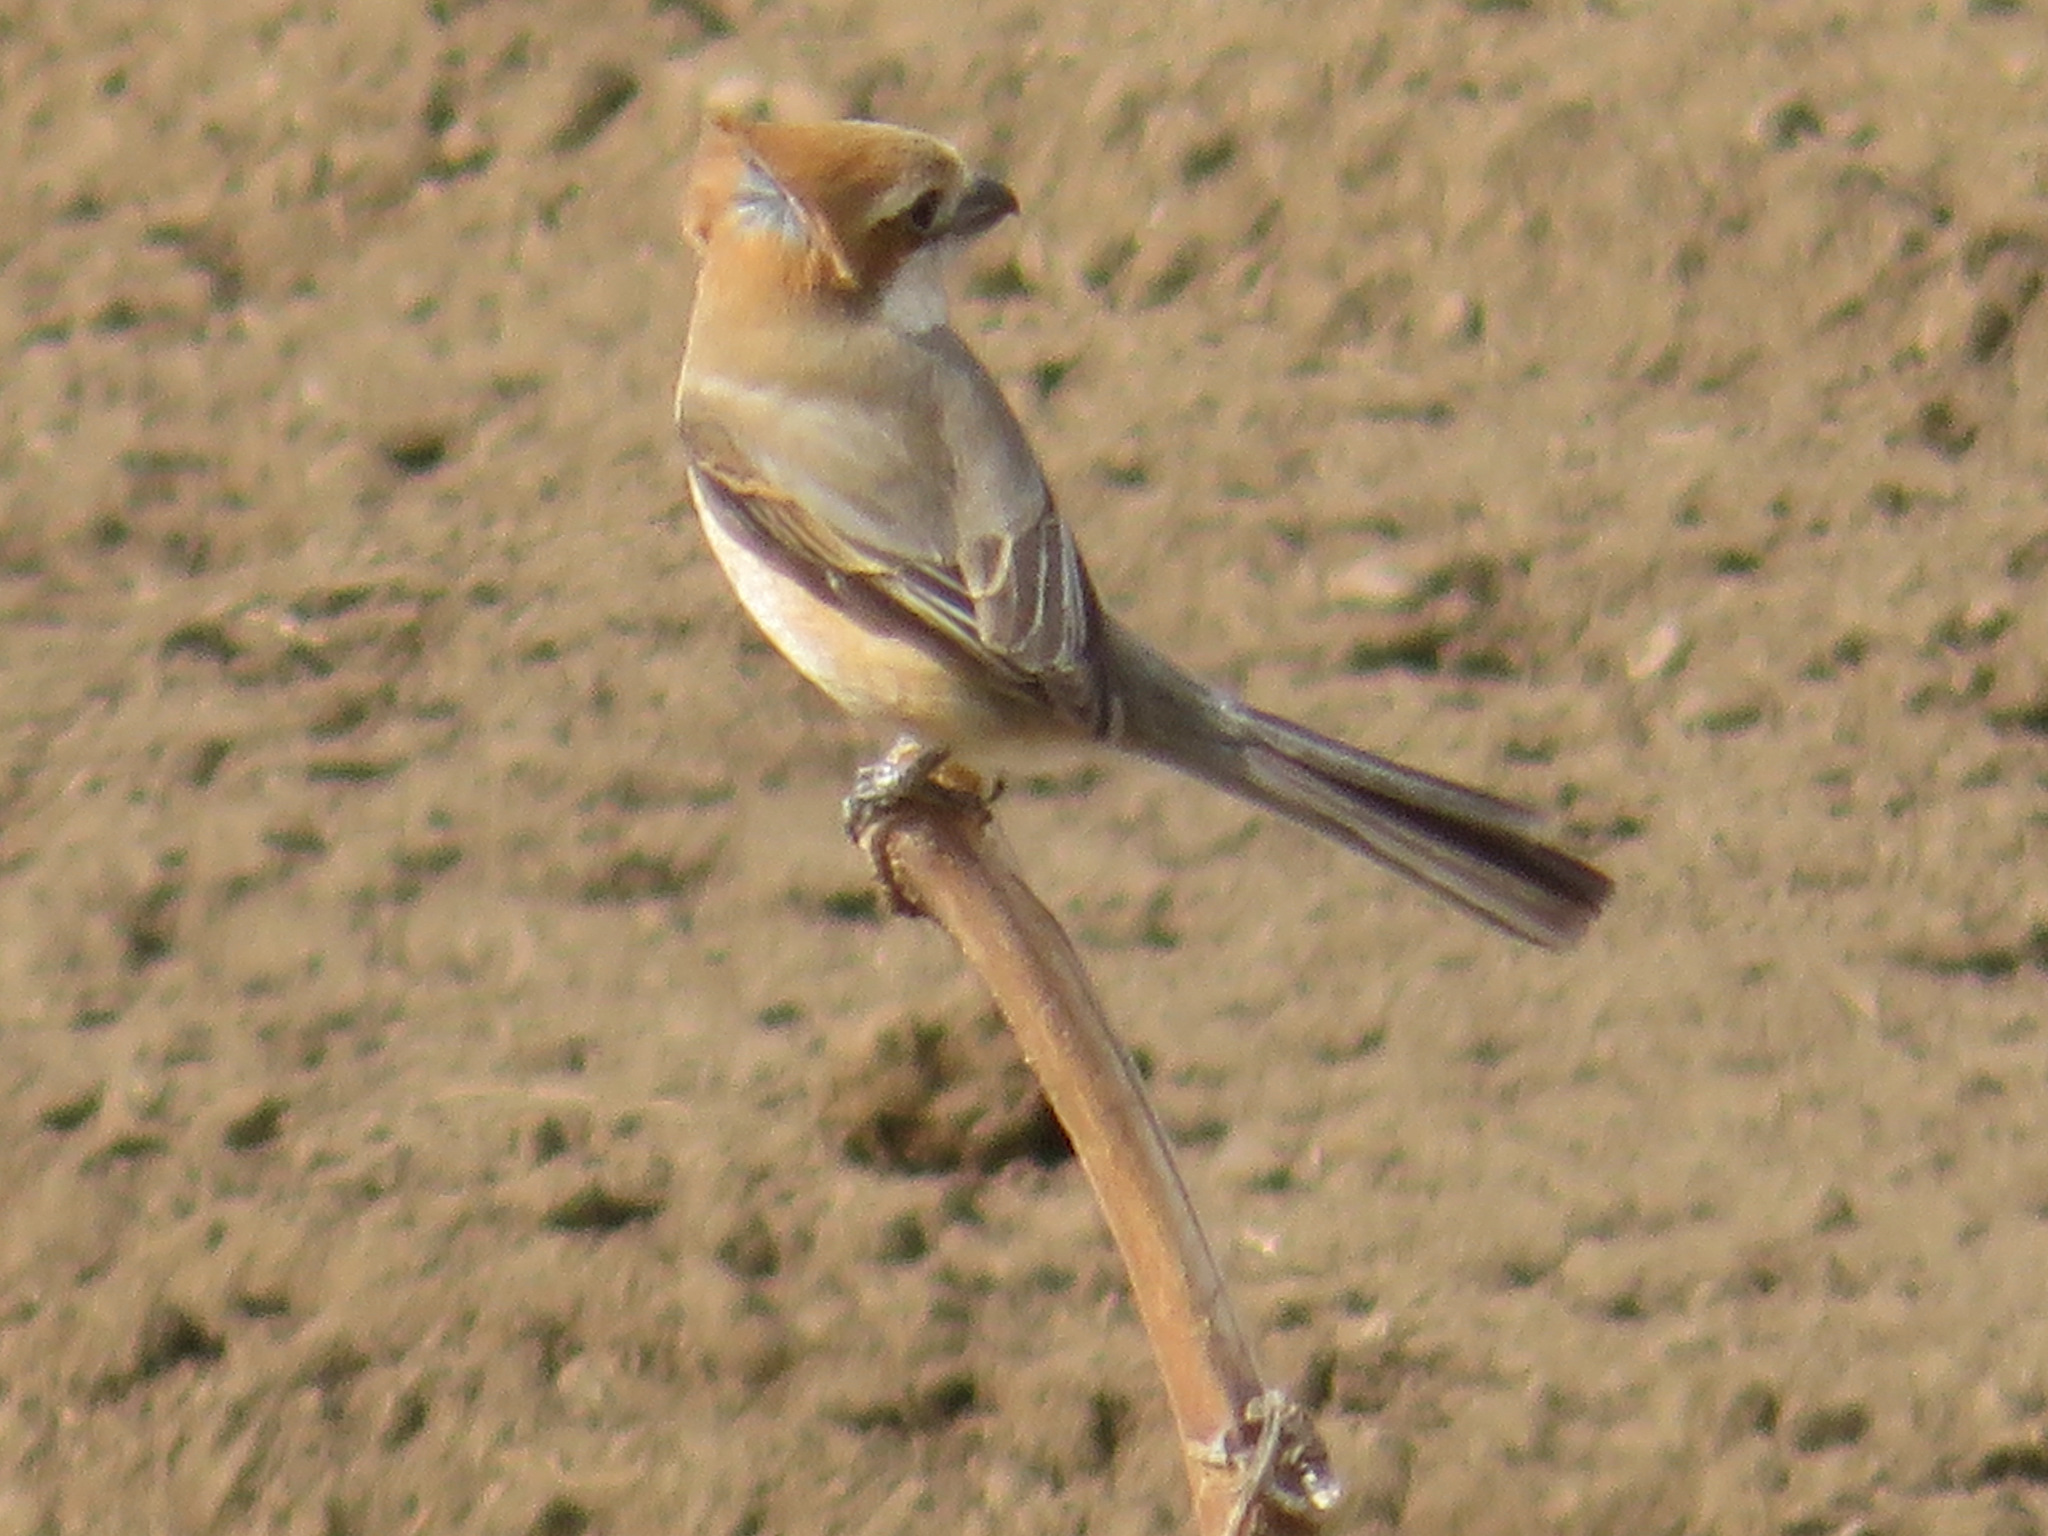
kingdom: Animalia
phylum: Chordata
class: Aves
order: Passeriformes
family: Laniidae
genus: Lanius
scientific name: Lanius bucephalus
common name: Bull-headed shrike
